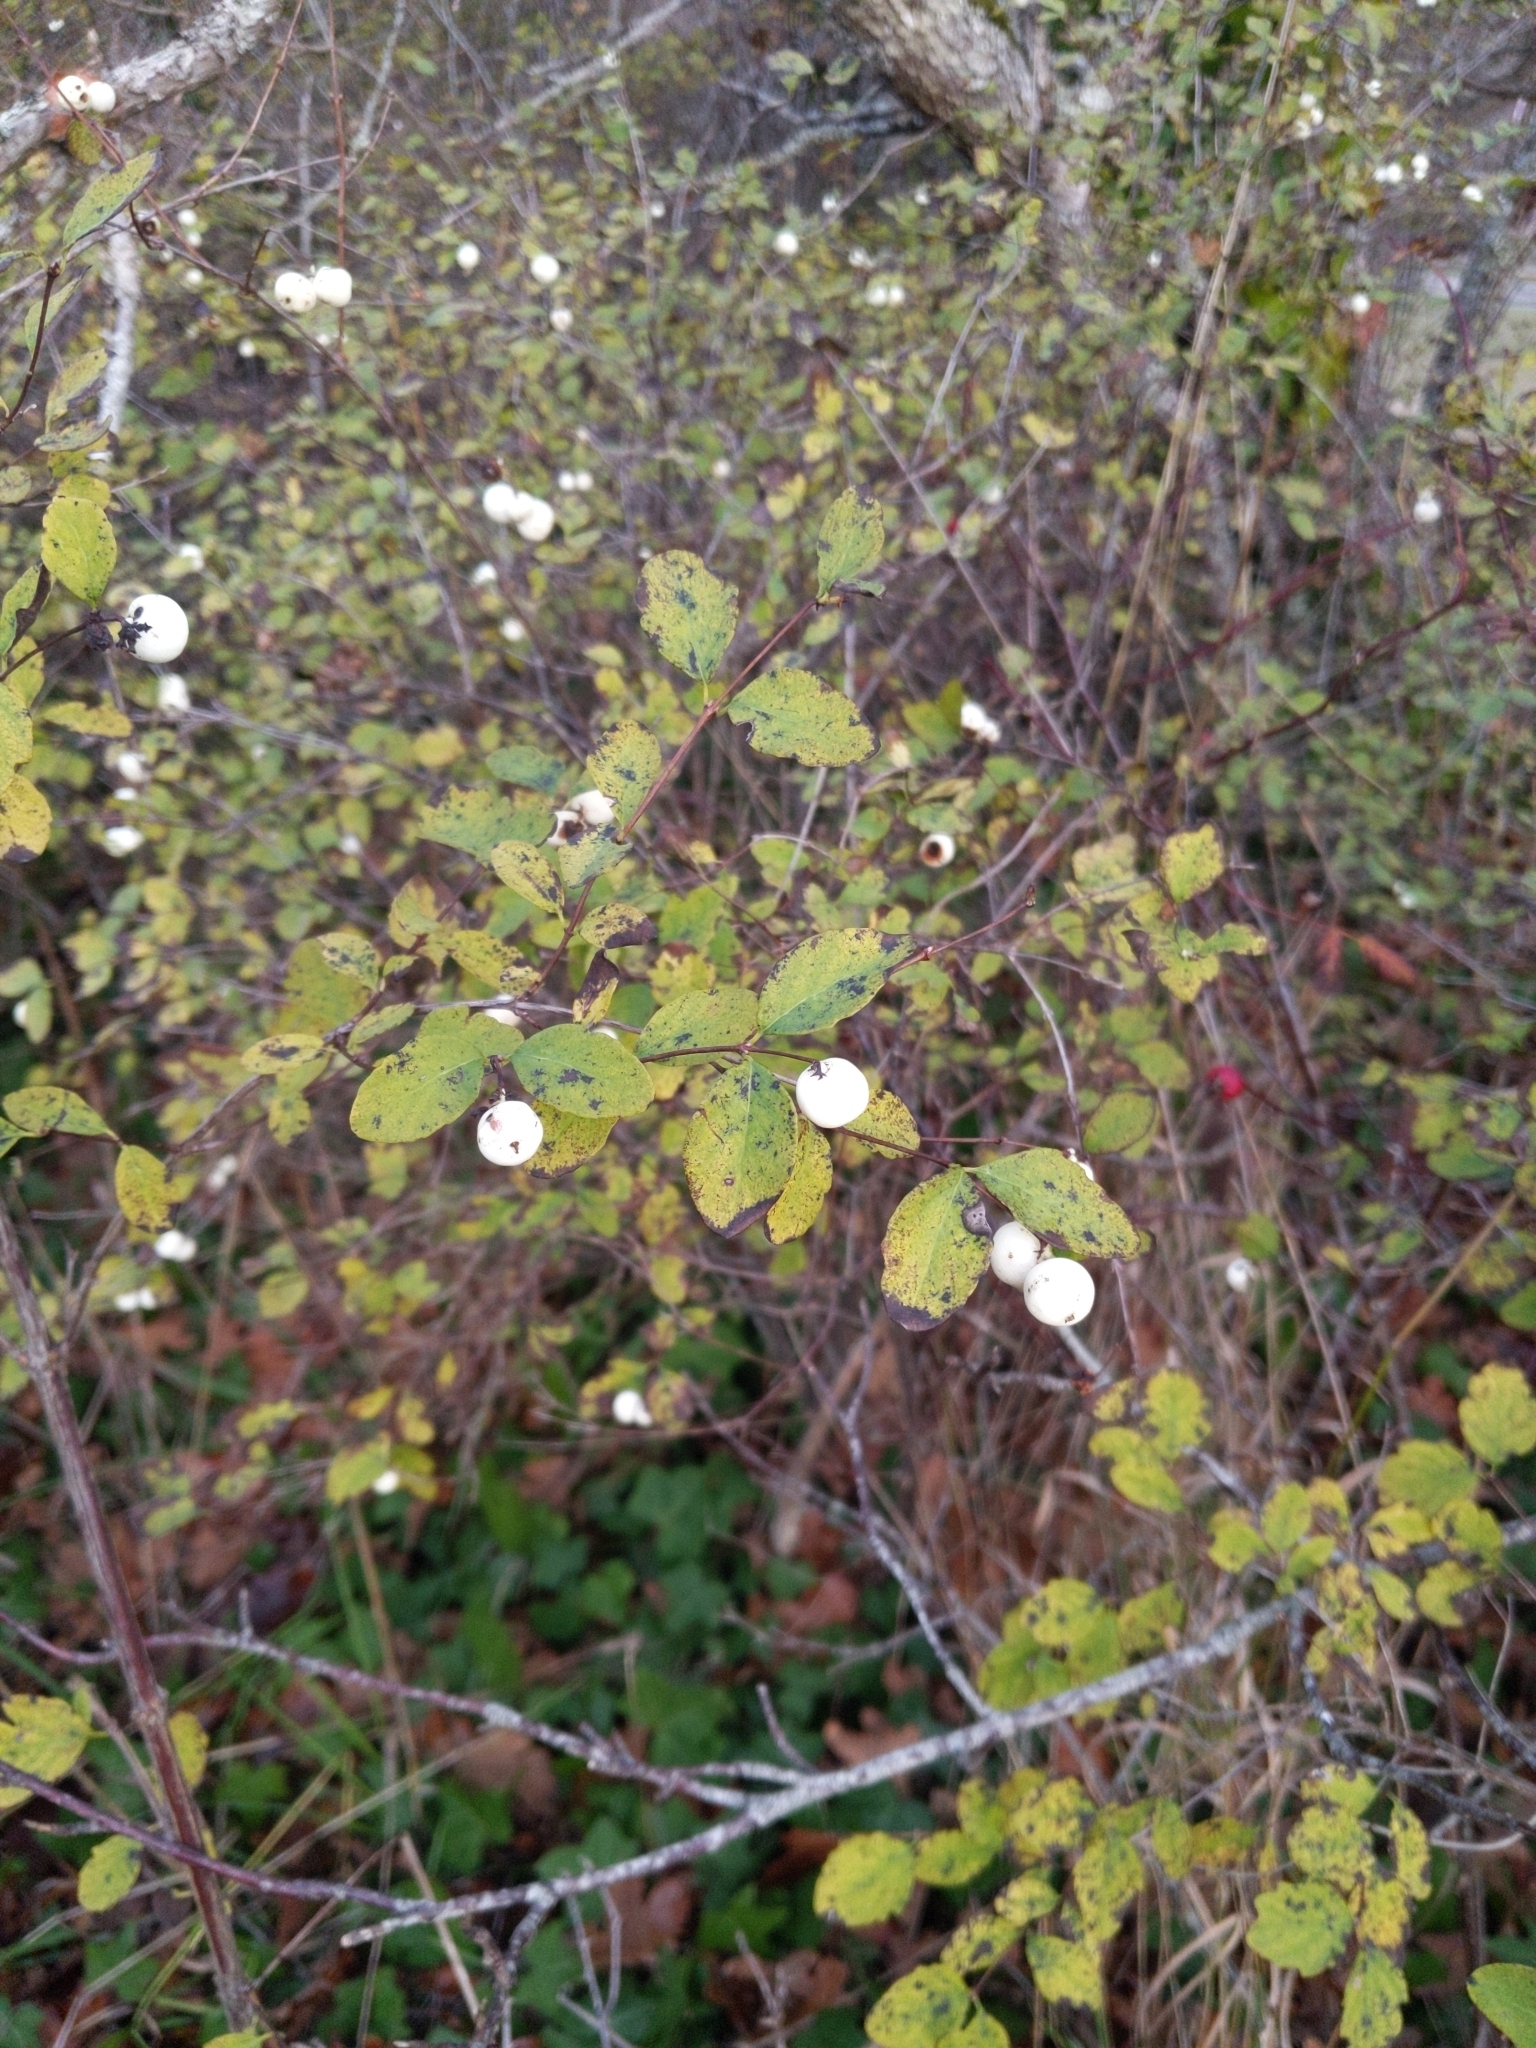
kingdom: Plantae
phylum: Tracheophyta
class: Magnoliopsida
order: Dipsacales
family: Caprifoliaceae
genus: Symphoricarpos
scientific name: Symphoricarpos albus
